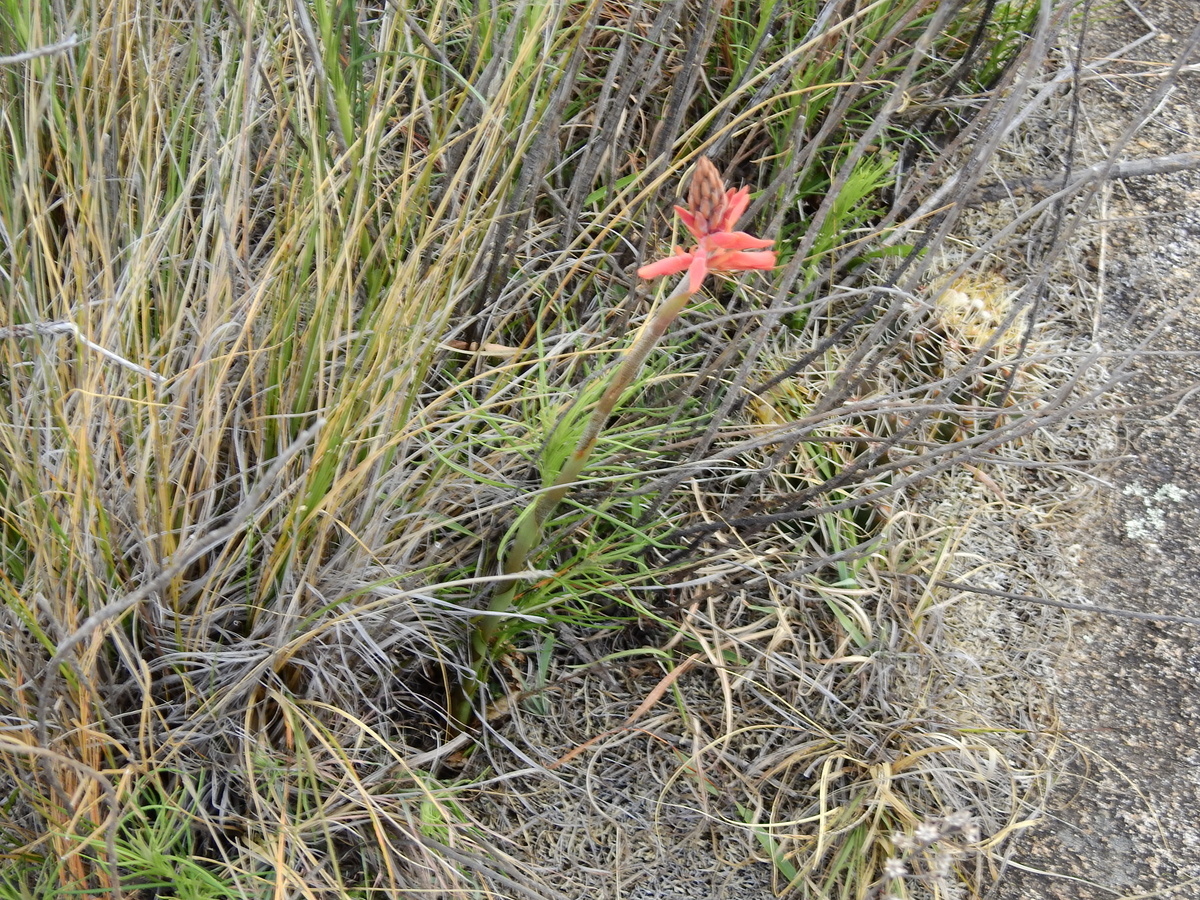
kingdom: Plantae
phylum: Tracheophyta
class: Liliopsida
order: Asparagales
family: Orchidaceae
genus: Sacoila
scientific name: Sacoila lanceolata
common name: Leafless beaked ladiestresses
